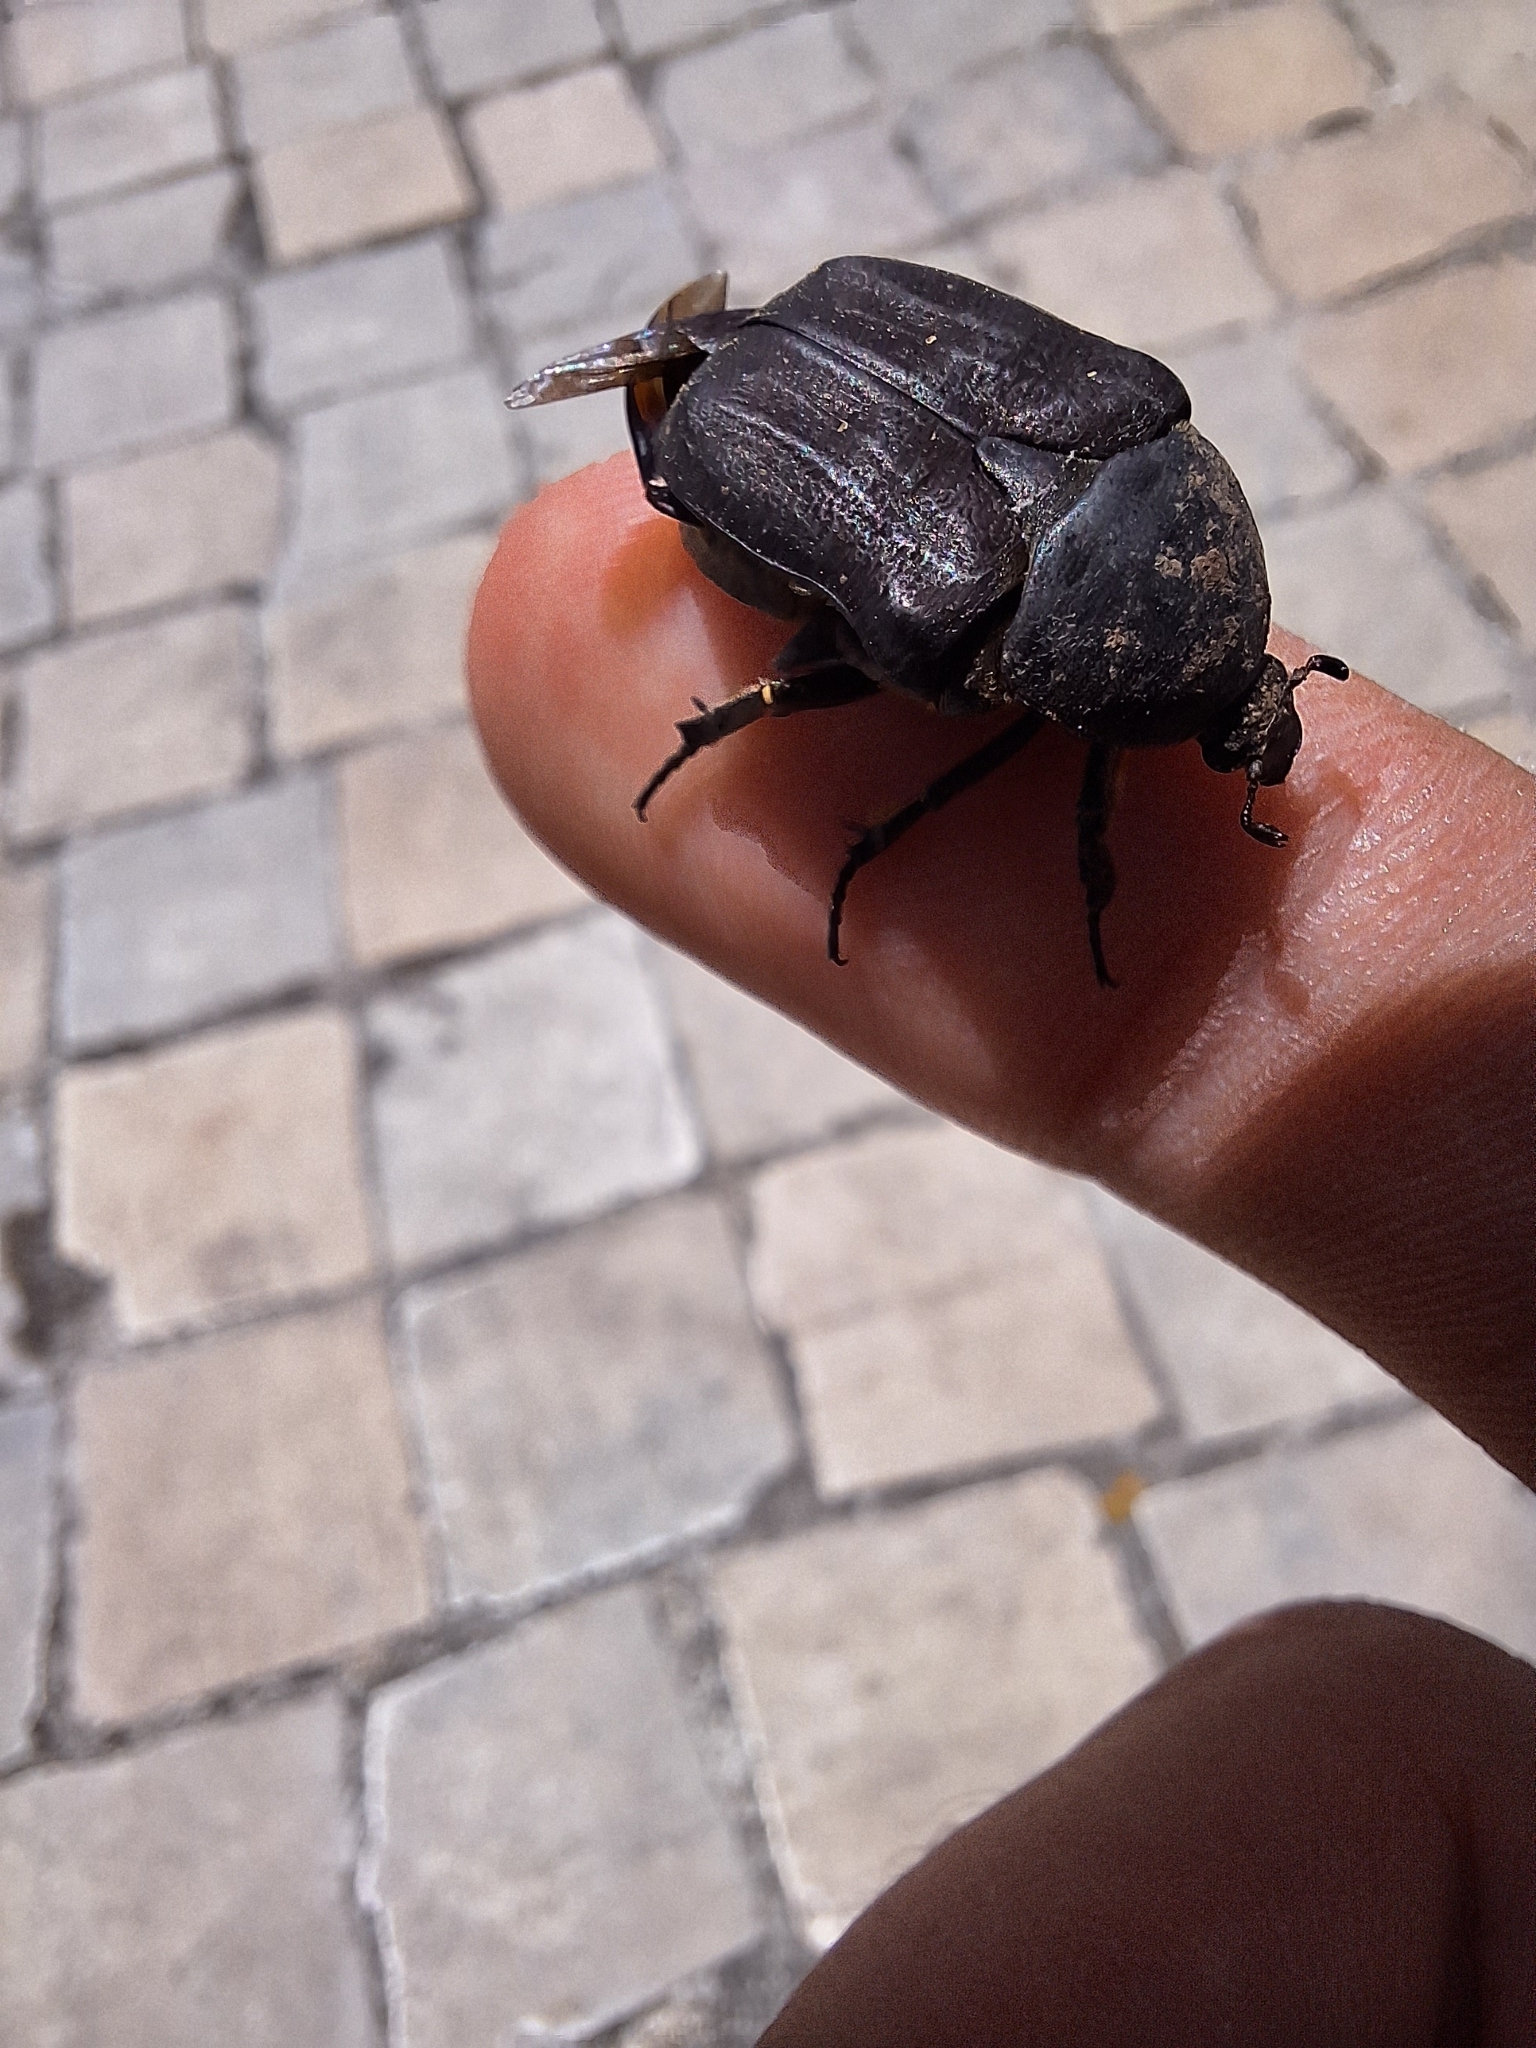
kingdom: Animalia
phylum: Arthropoda
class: Insecta
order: Coleoptera
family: Scarabaeidae
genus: Protaetia
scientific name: Protaetia morio
